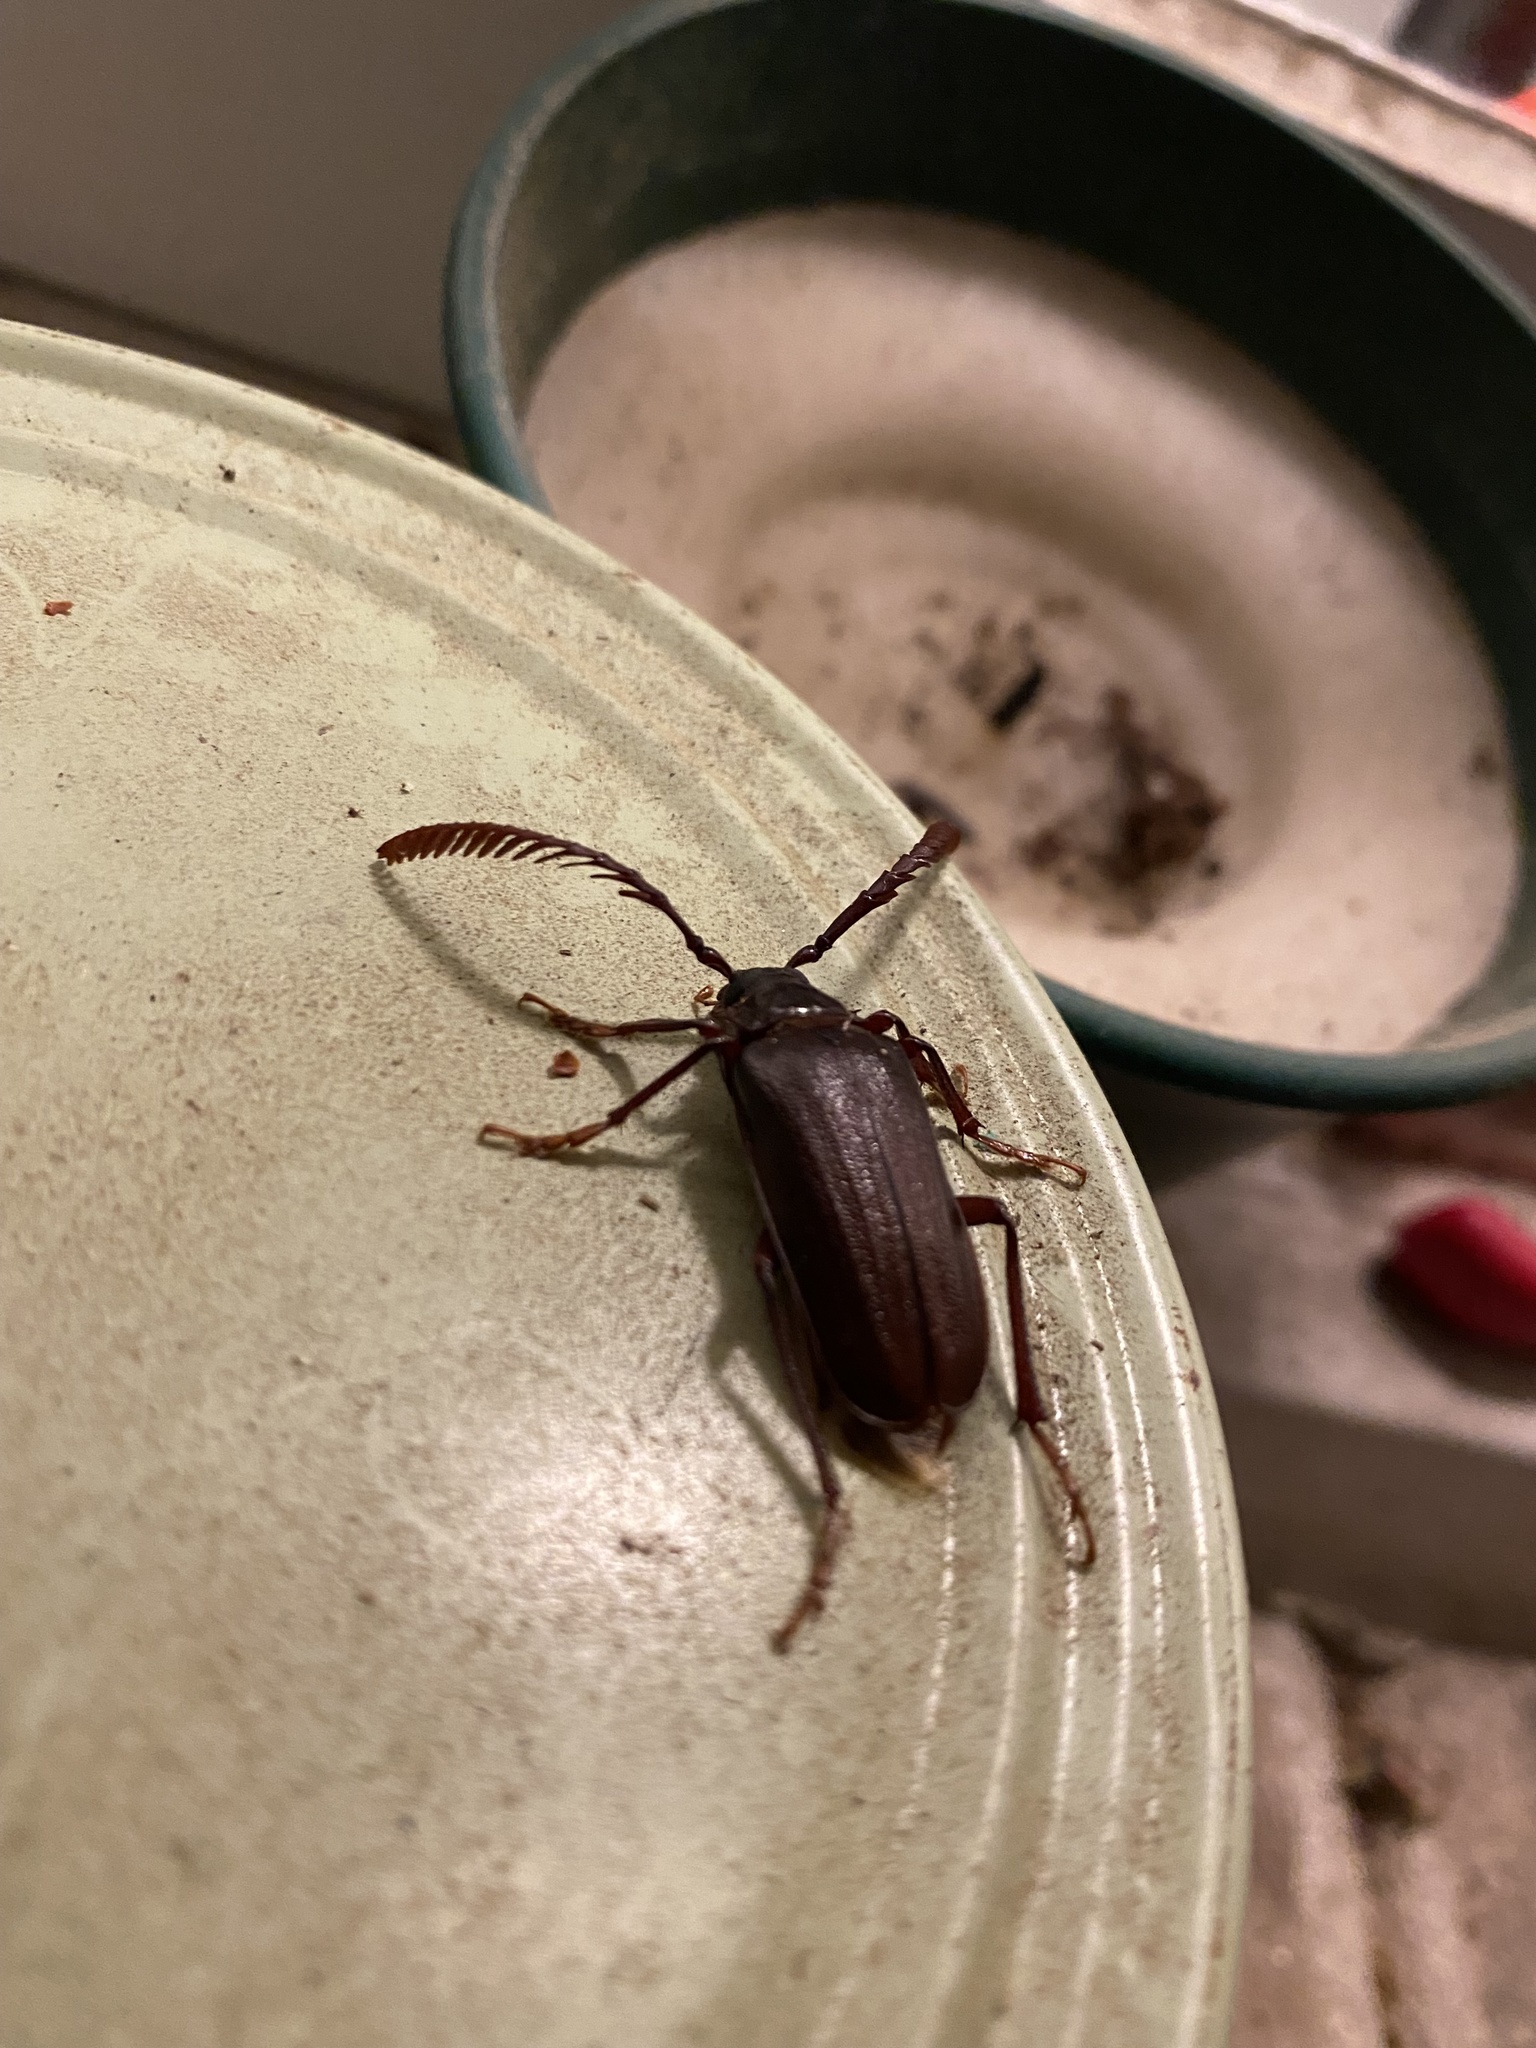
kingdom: Animalia
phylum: Arthropoda
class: Insecta
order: Coleoptera
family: Cerambycidae
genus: Prionus
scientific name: Prionus imbricornis
